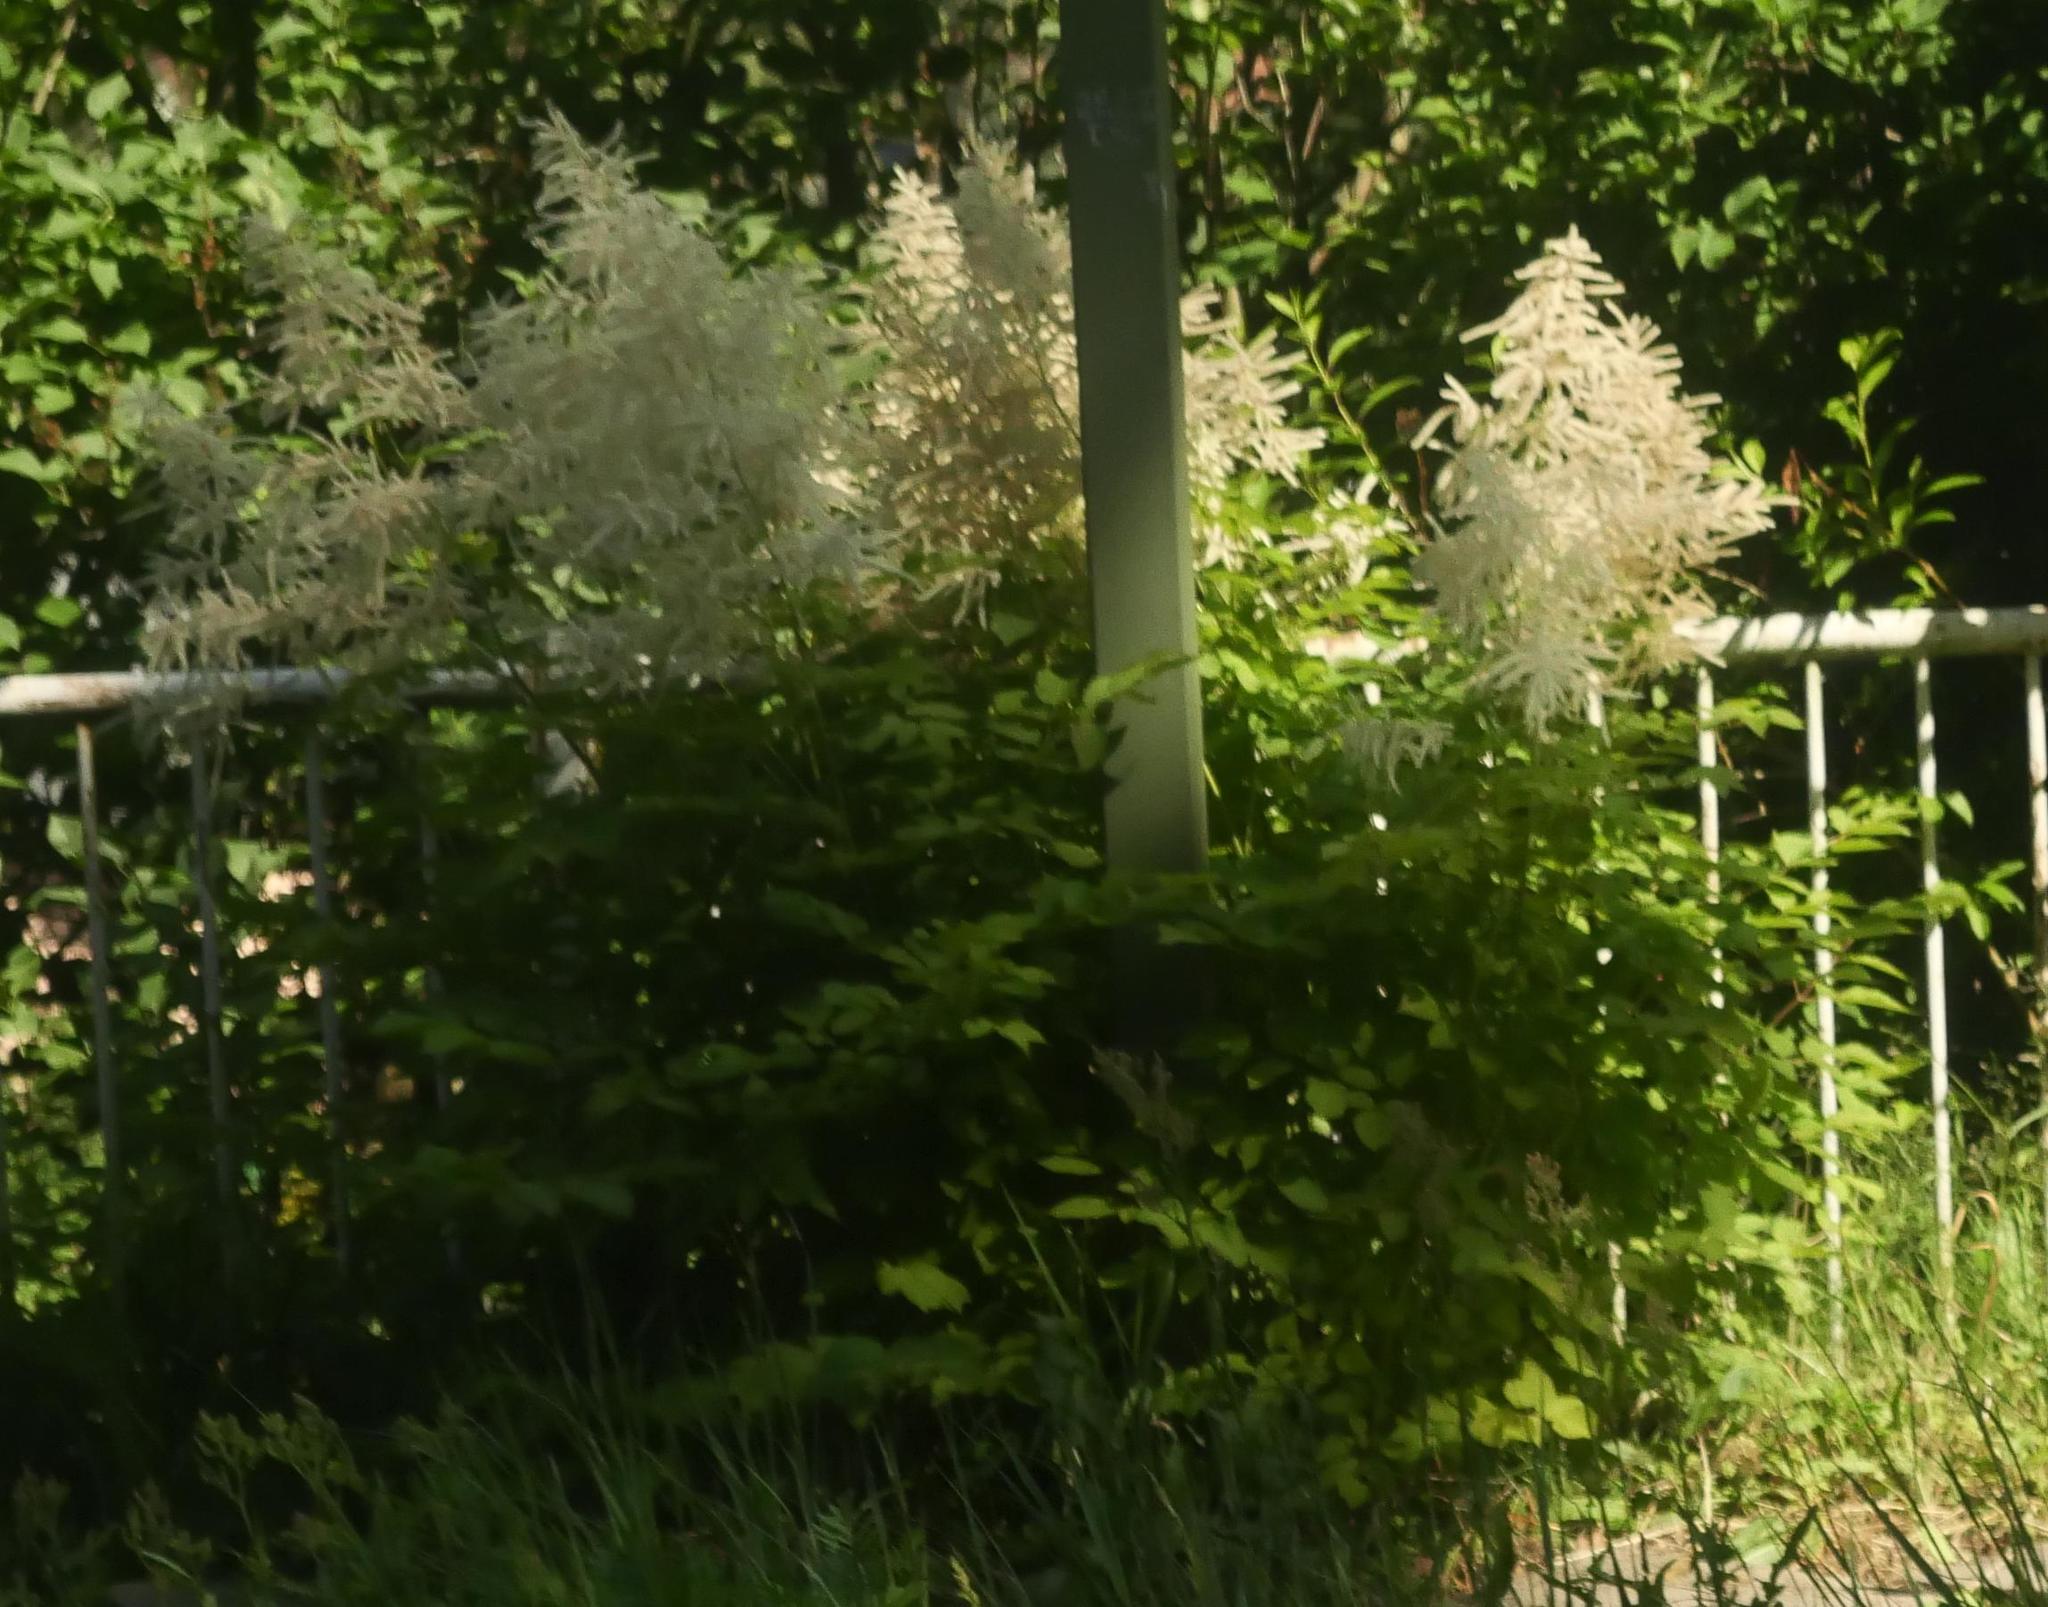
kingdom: Plantae
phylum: Tracheophyta
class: Magnoliopsida
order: Rosales
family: Rosaceae
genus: Aruncus
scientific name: Aruncus dioicus
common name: Buck's-beard
